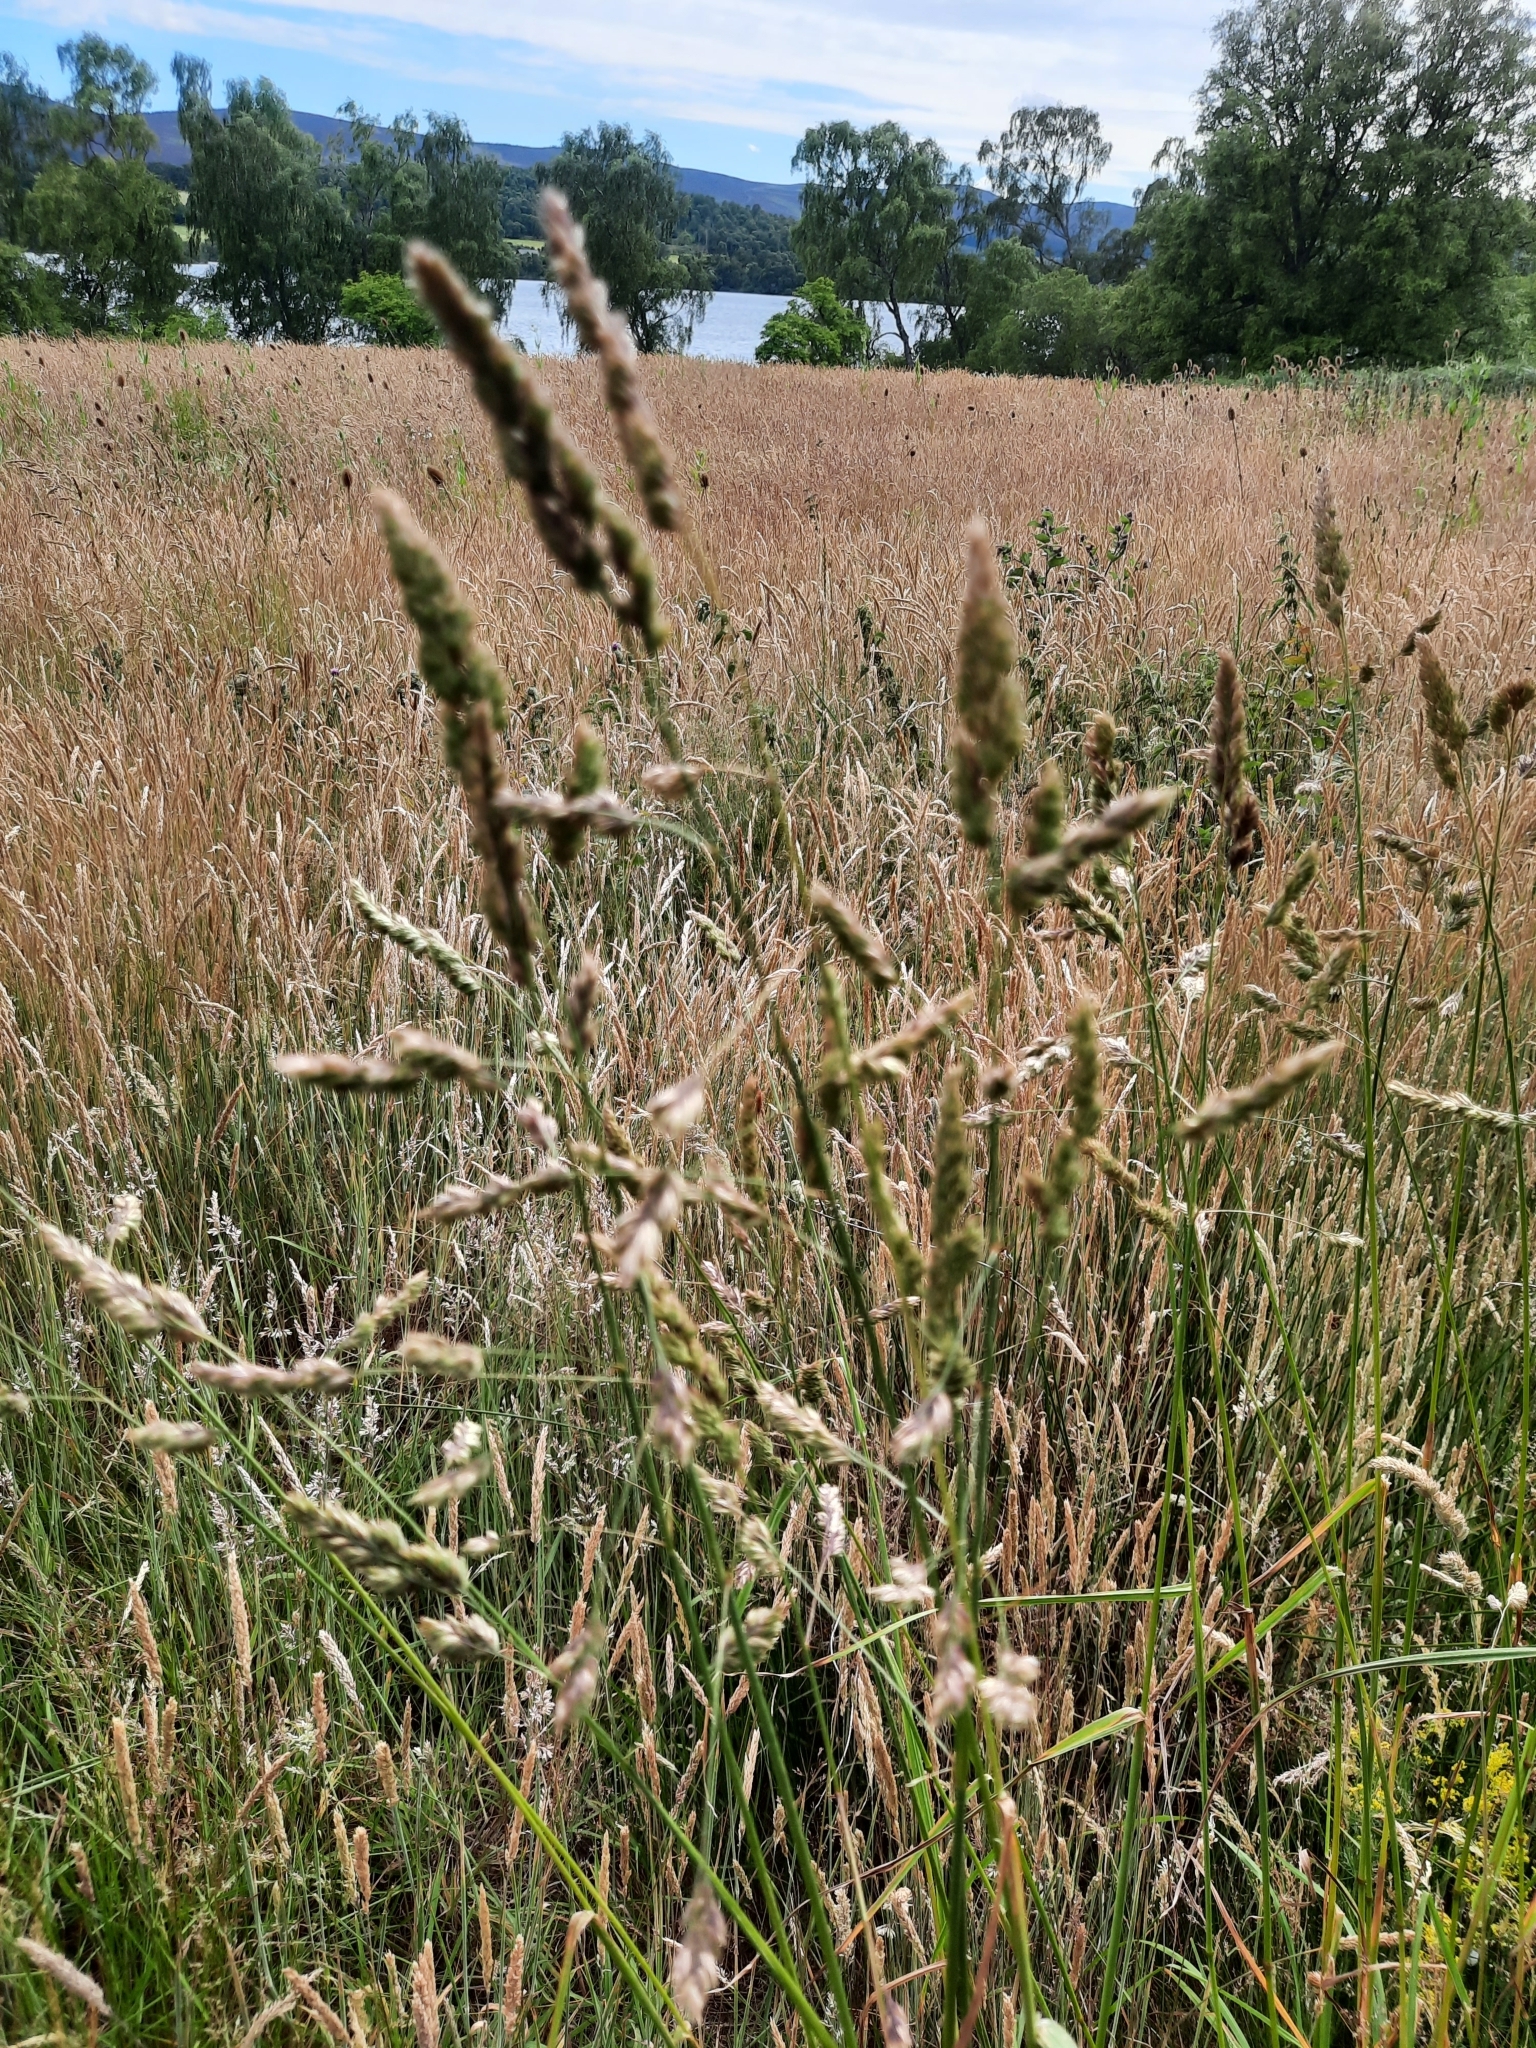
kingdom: Plantae
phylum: Tracheophyta
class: Liliopsida
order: Poales
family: Poaceae
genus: Dactylis
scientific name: Dactylis glomerata
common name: Orchardgrass
